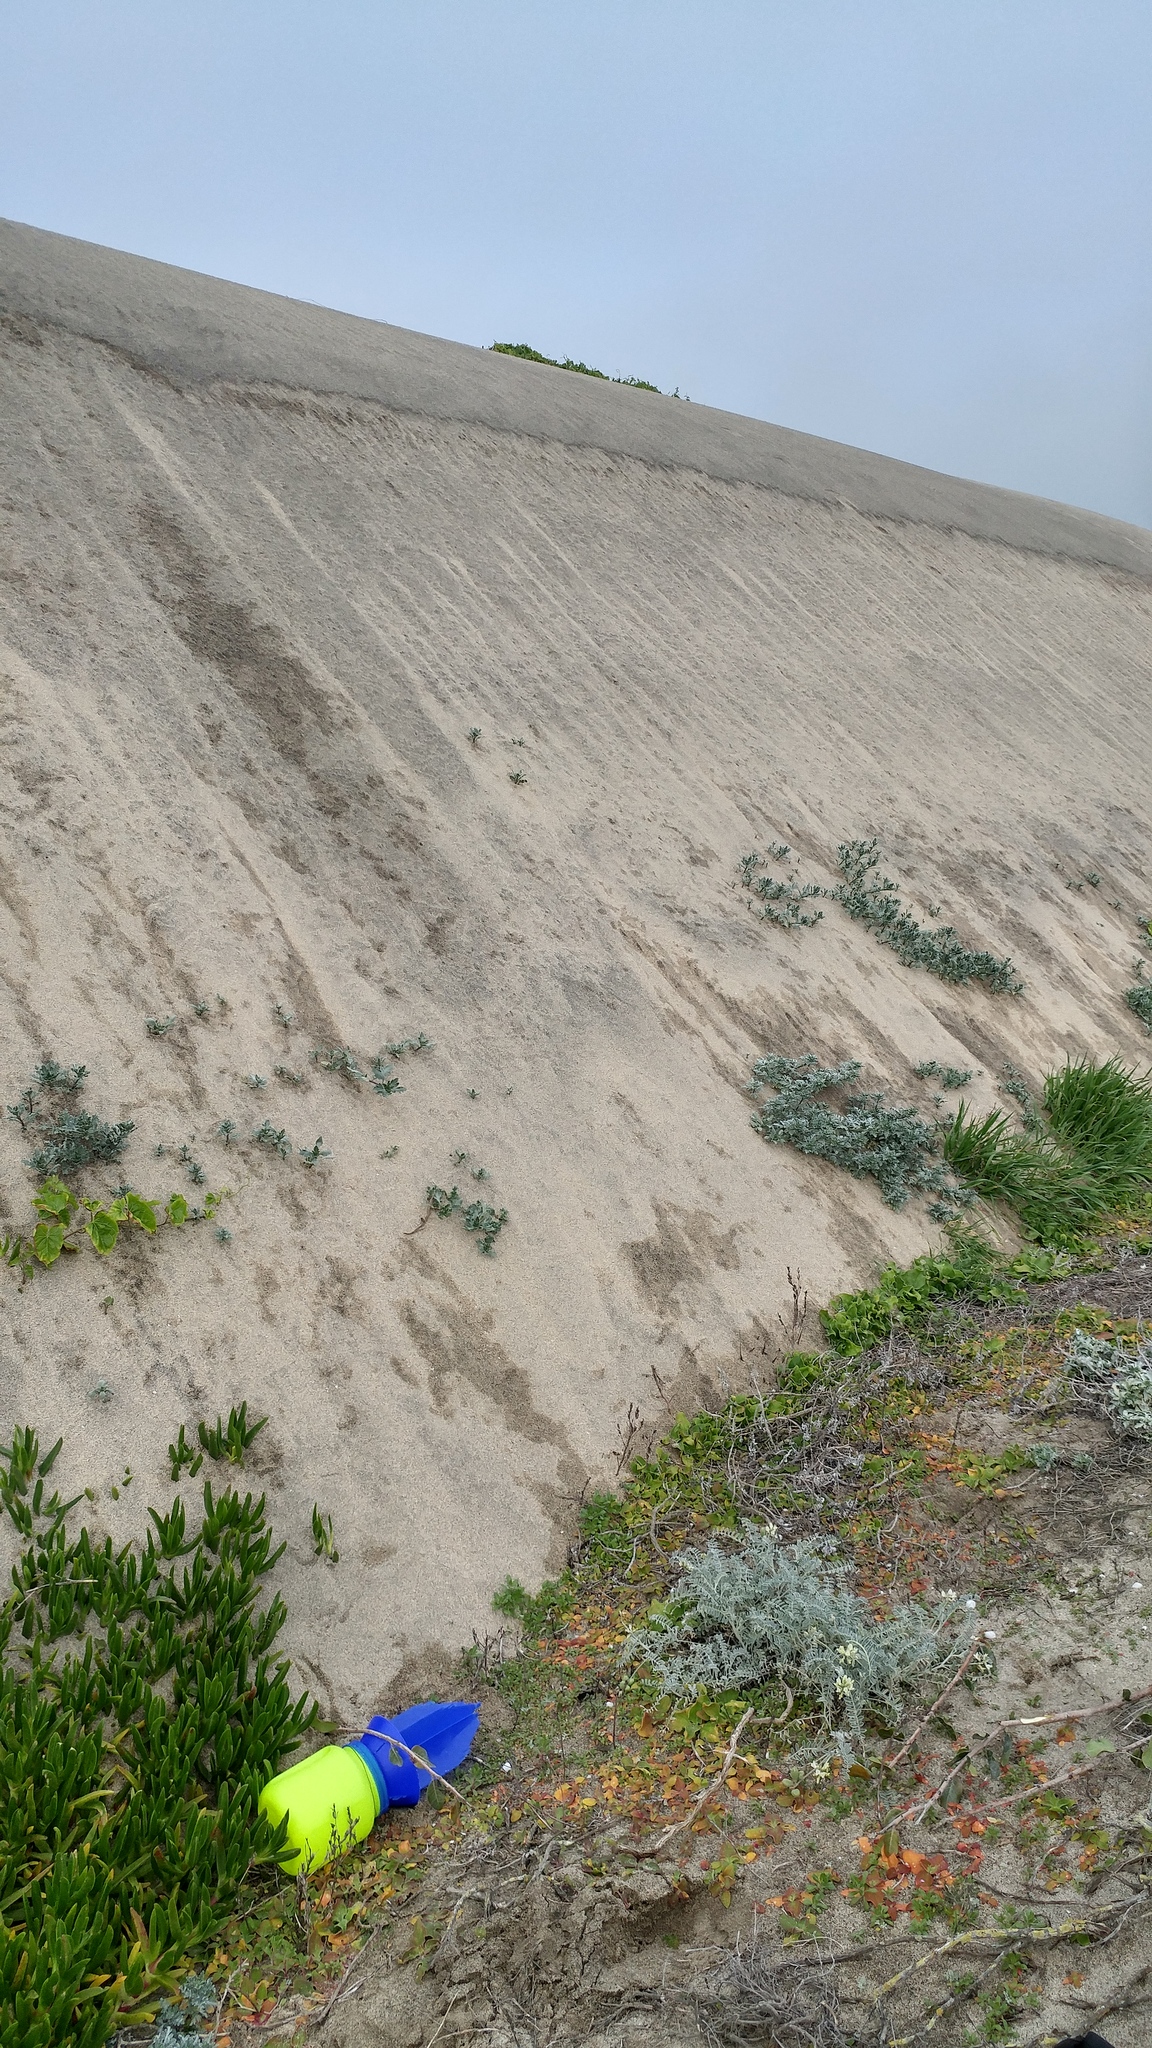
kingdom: Plantae
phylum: Tracheophyta
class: Magnoliopsida
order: Caryophyllales
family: Aizoaceae
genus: Carpobrotus
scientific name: Carpobrotus edulis
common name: Hottentot-fig
